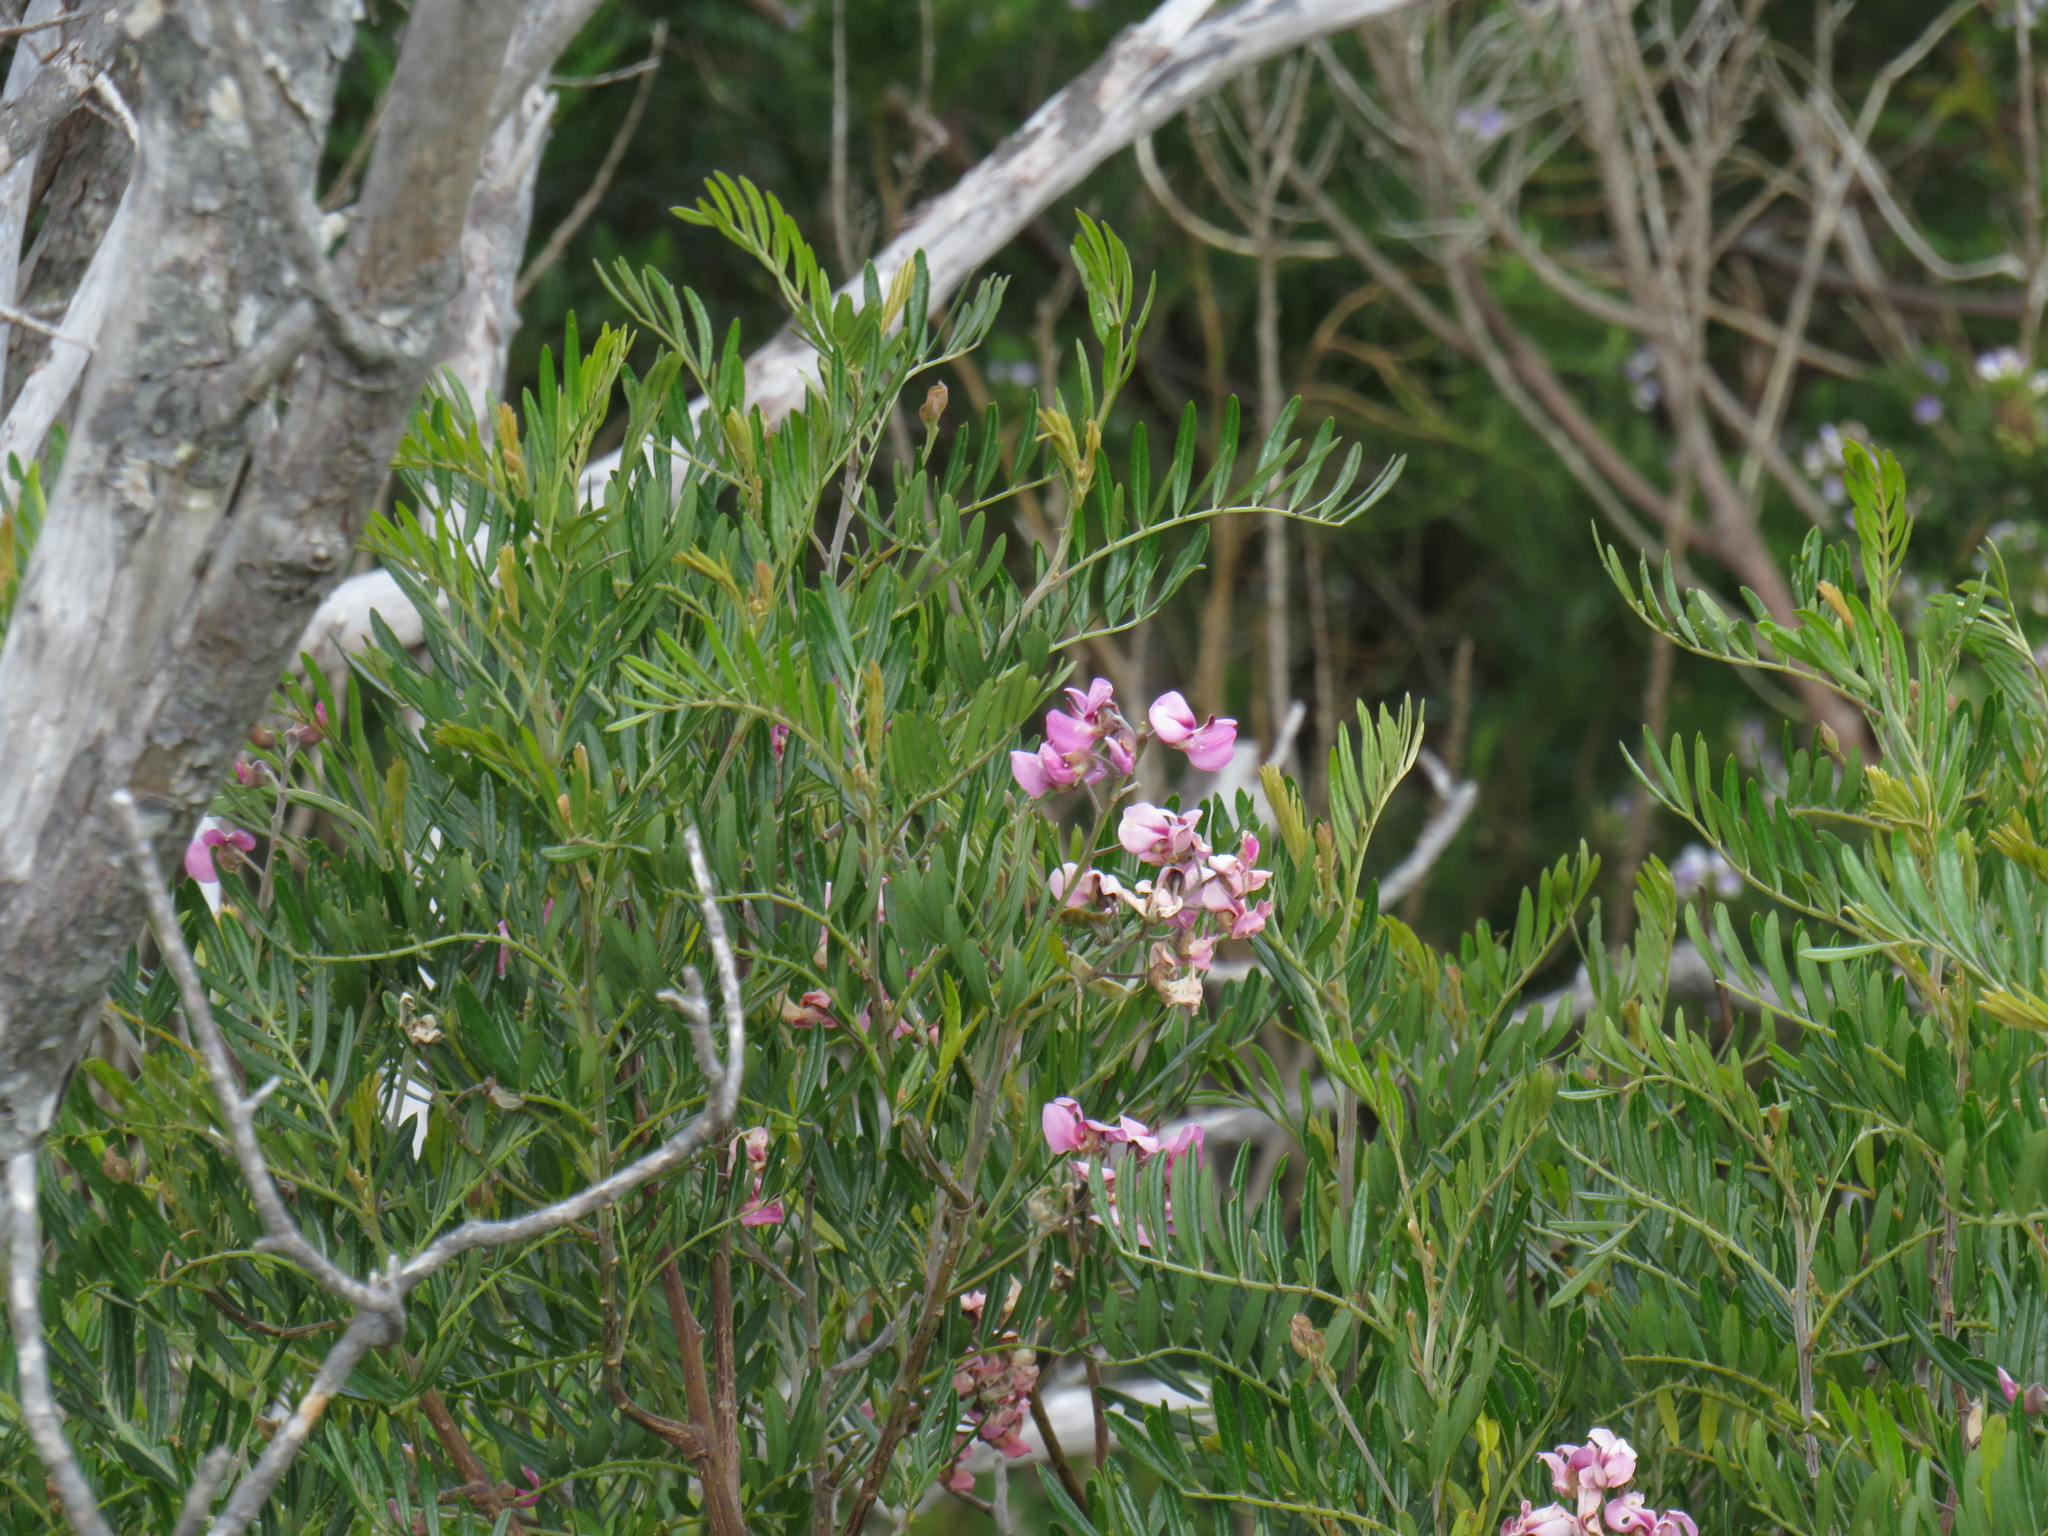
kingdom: Plantae
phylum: Tracheophyta
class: Magnoliopsida
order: Fabales
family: Fabaceae
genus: Virgilia
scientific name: Virgilia oroboides
